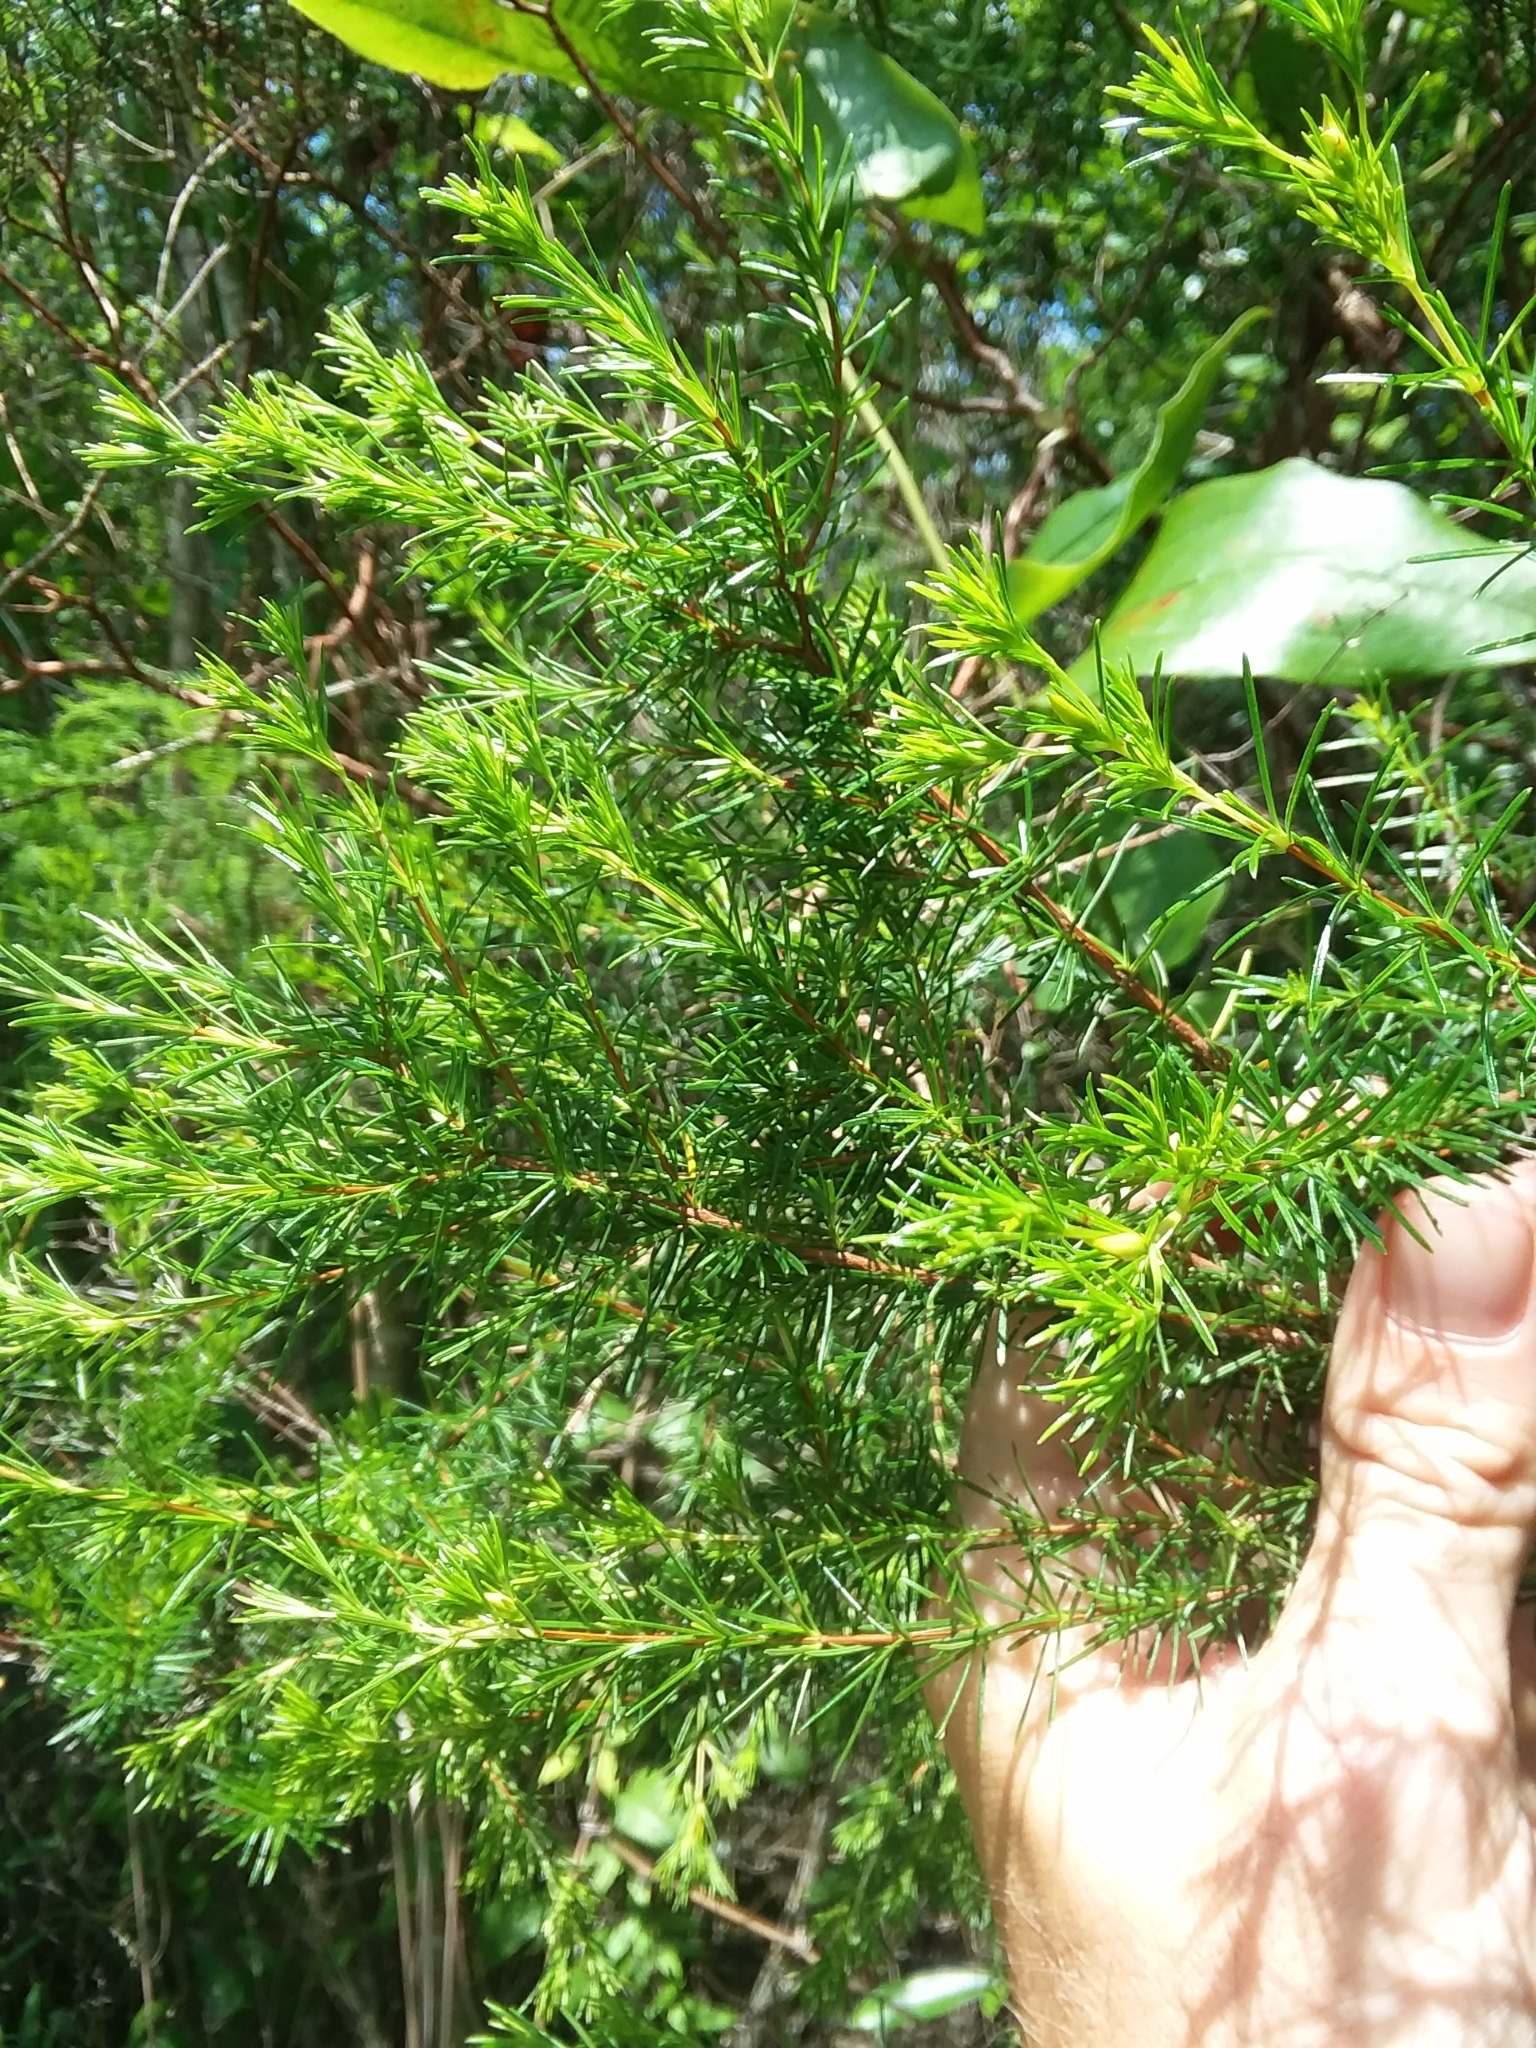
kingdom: Plantae
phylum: Tracheophyta
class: Magnoliopsida
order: Malpighiales
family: Hypericaceae
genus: Hypericum
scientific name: Hypericum fasciculatum
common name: Peelbark st. john's wort
